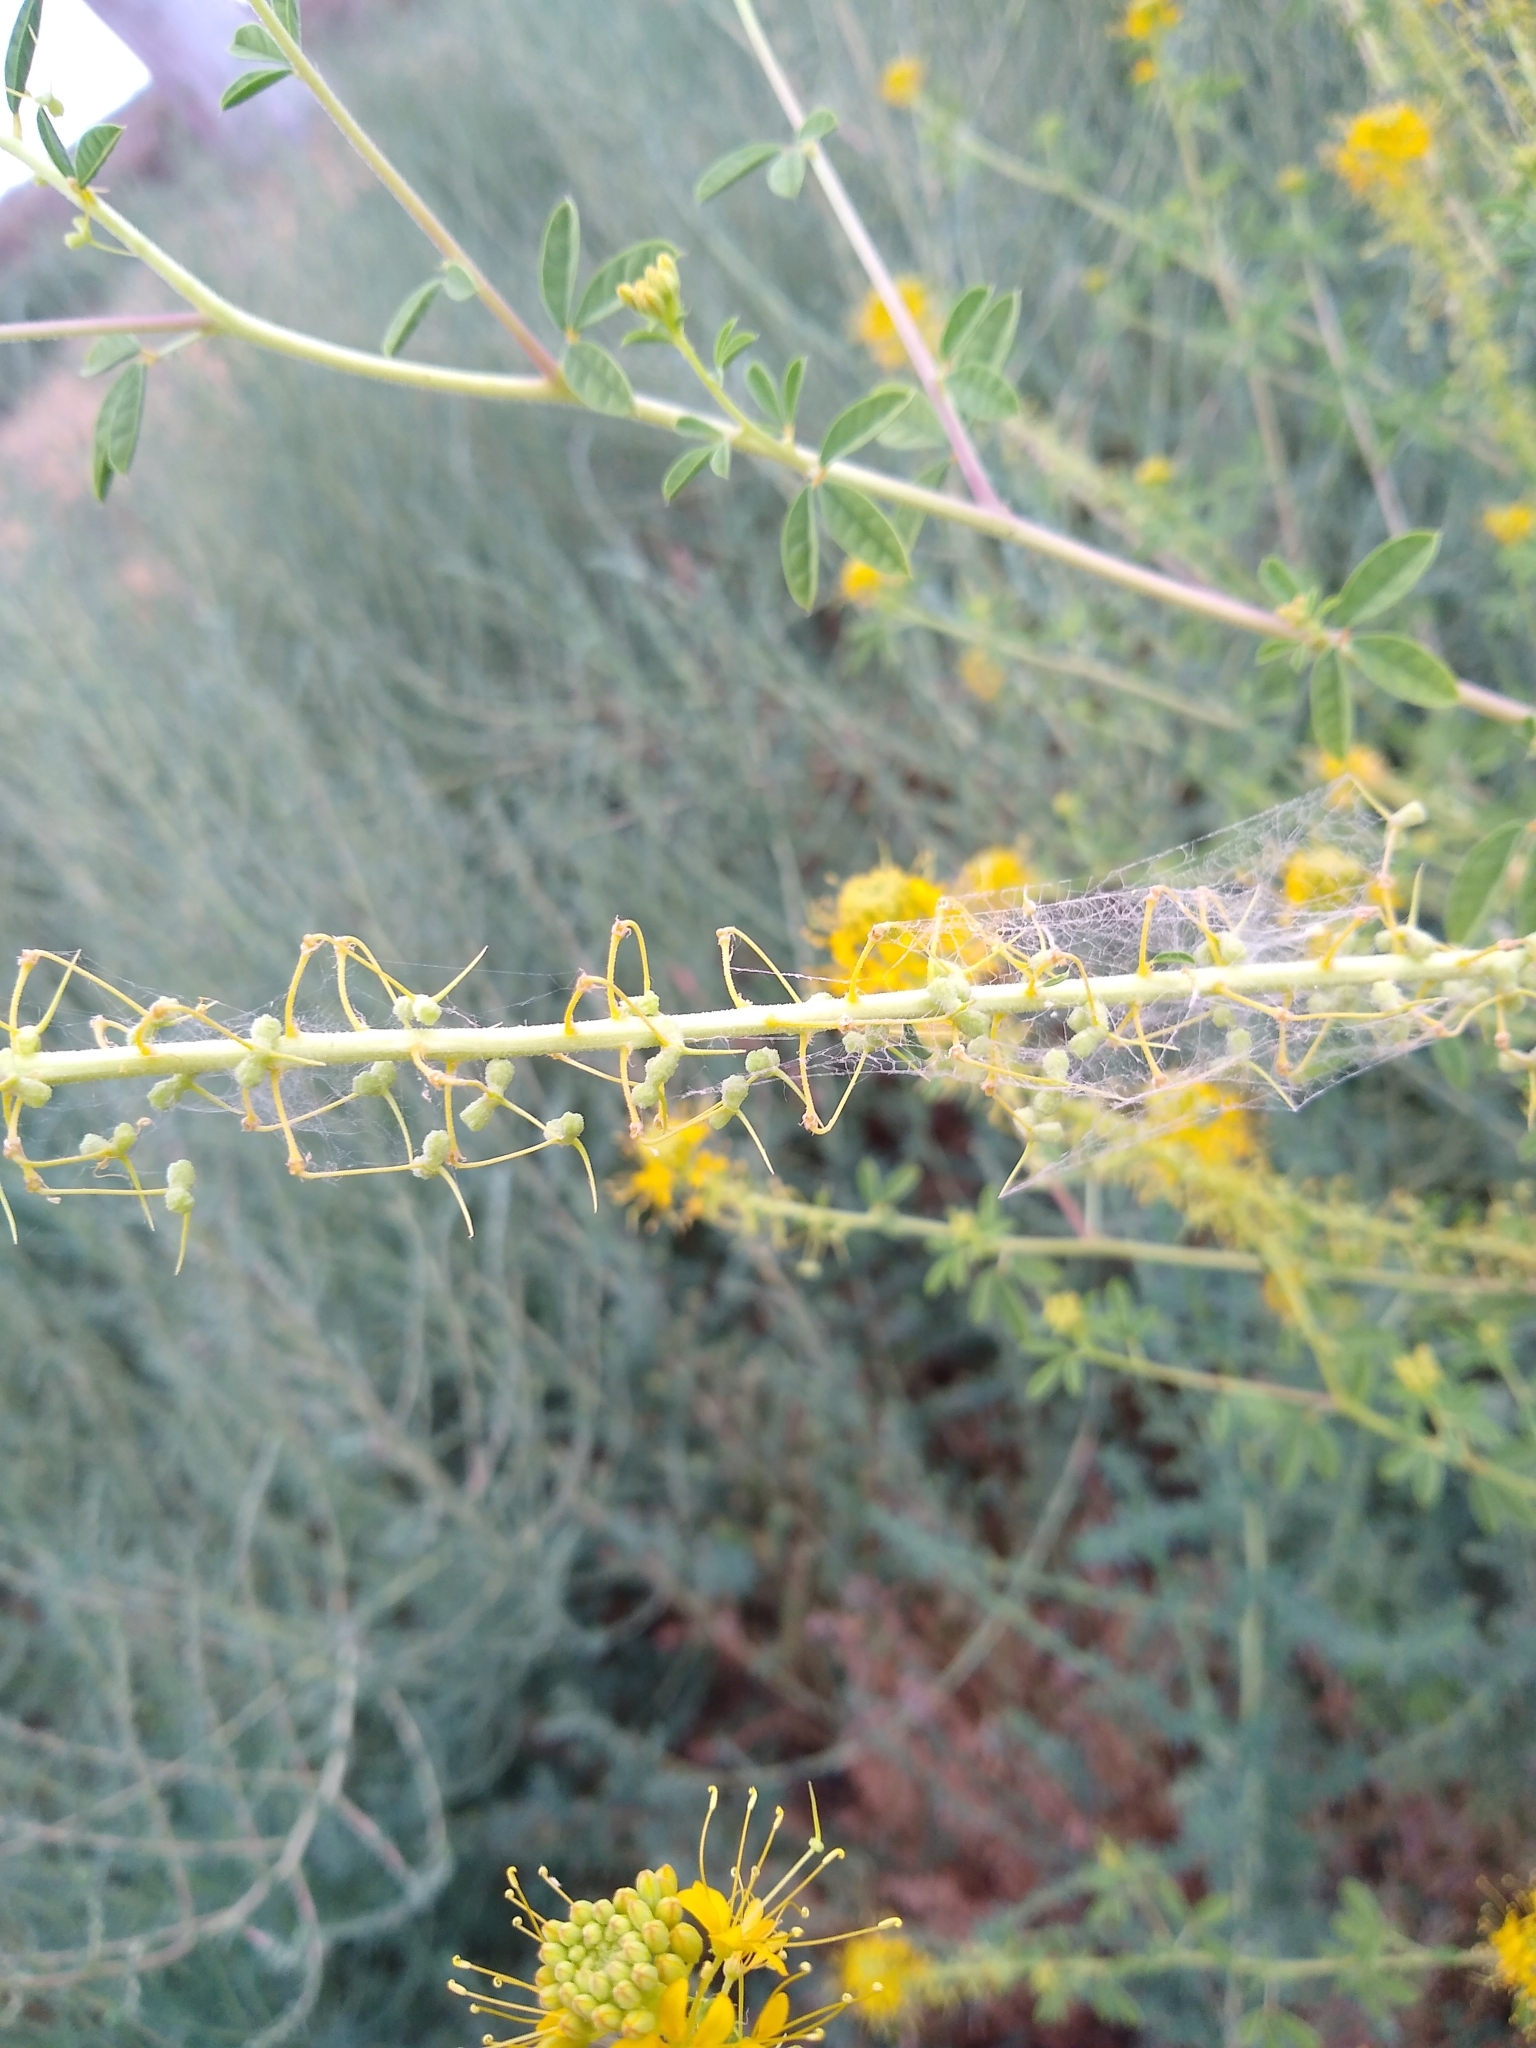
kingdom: Plantae
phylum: Tracheophyta
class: Magnoliopsida
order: Brassicales
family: Cleomaceae
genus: Cleomella
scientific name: Cleomella refracta
